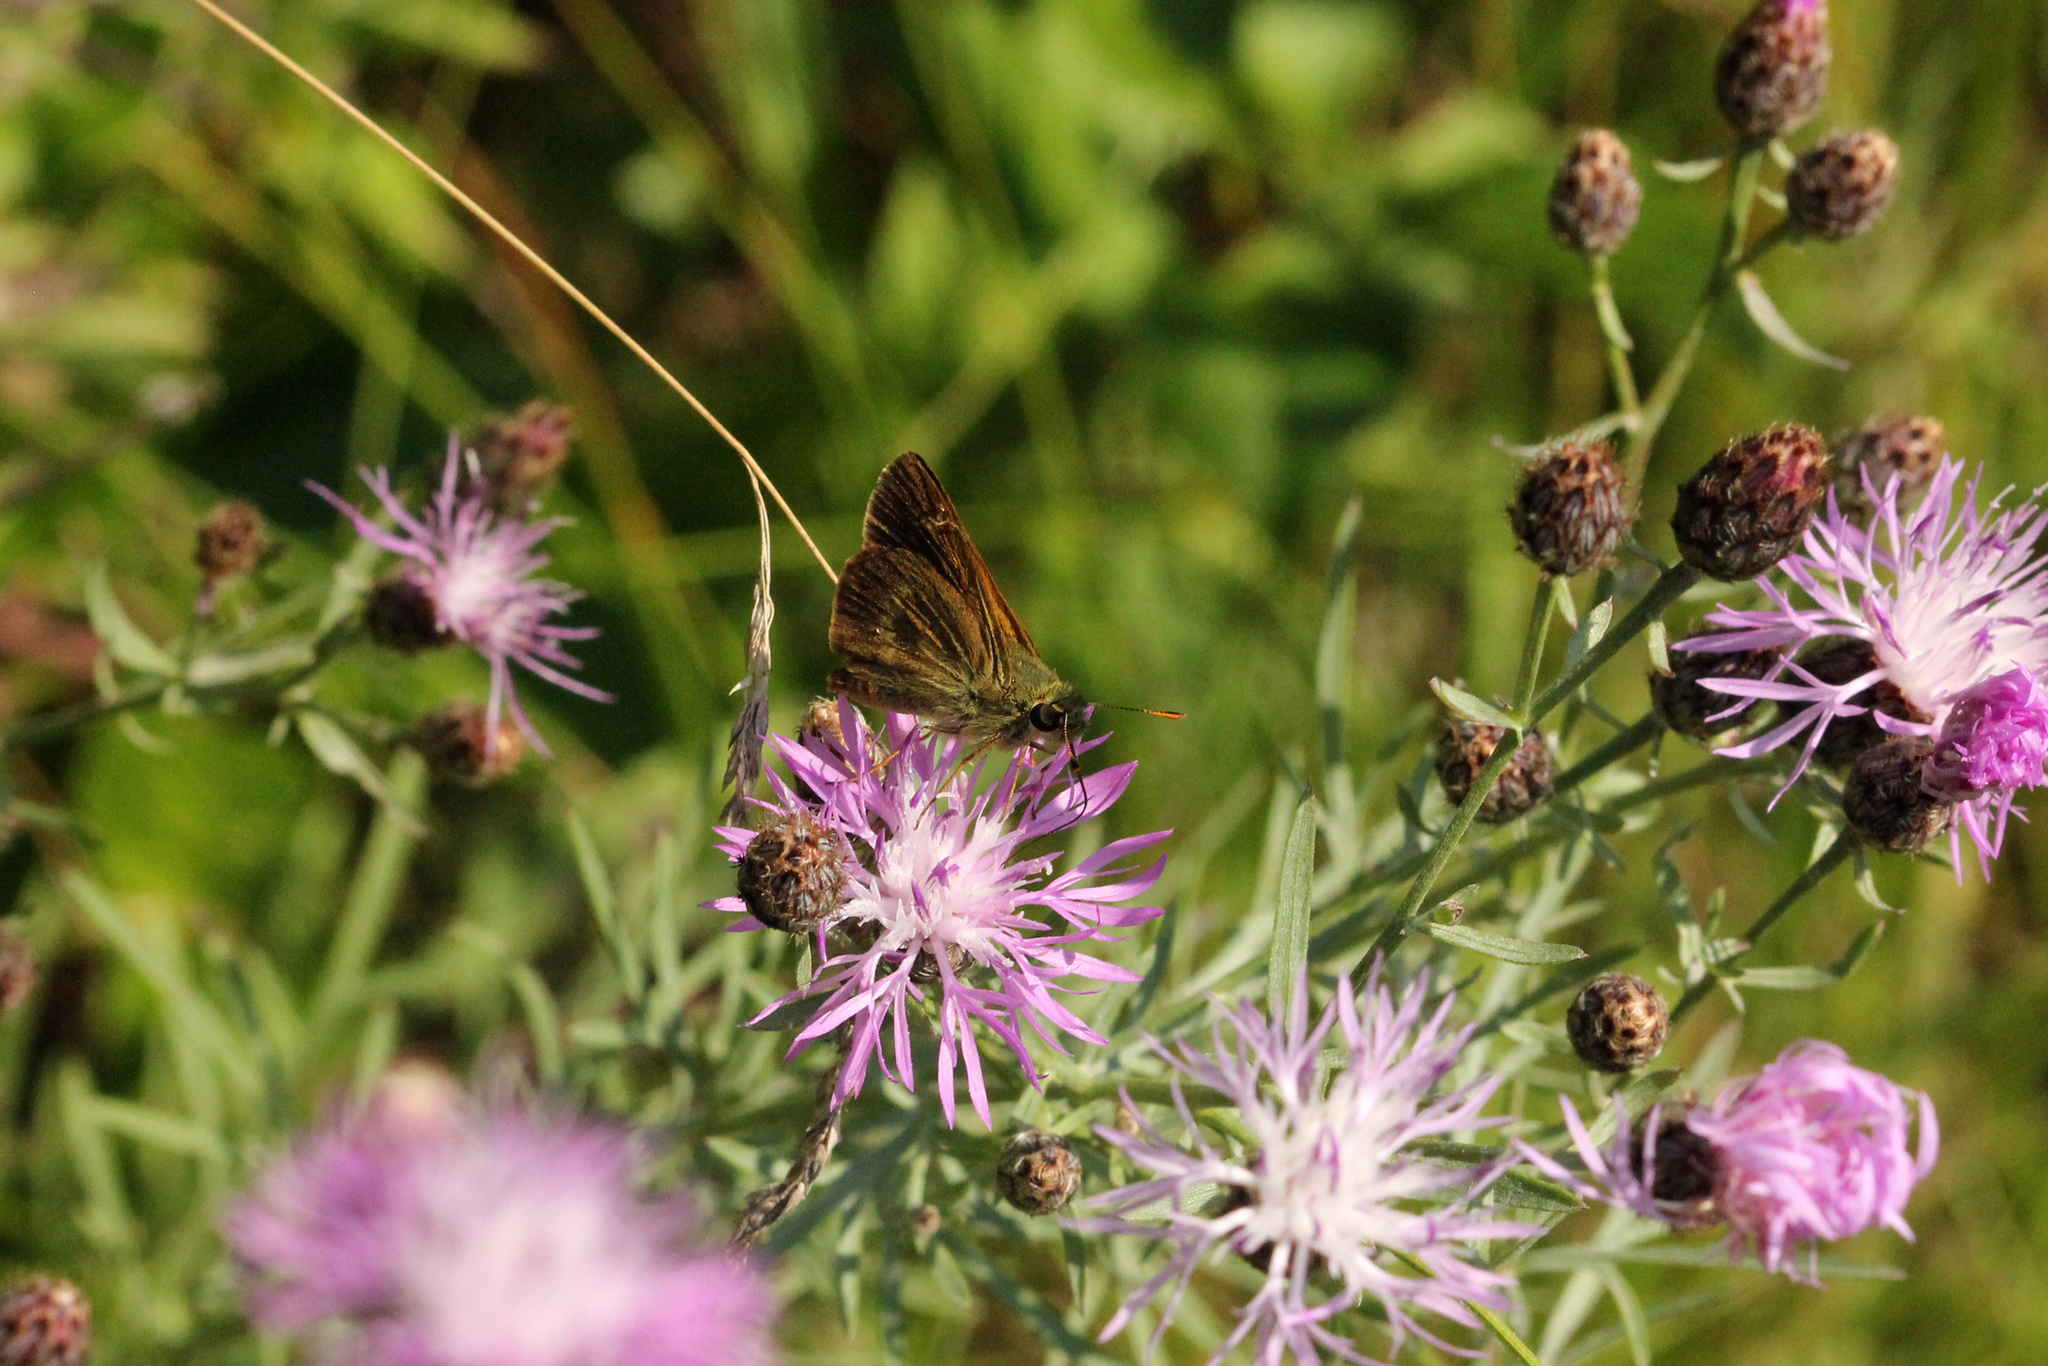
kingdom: Animalia
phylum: Arthropoda
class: Insecta
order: Lepidoptera
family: Hesperiidae
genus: Polites
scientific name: Polites egeremet
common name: Northern broken-dash
